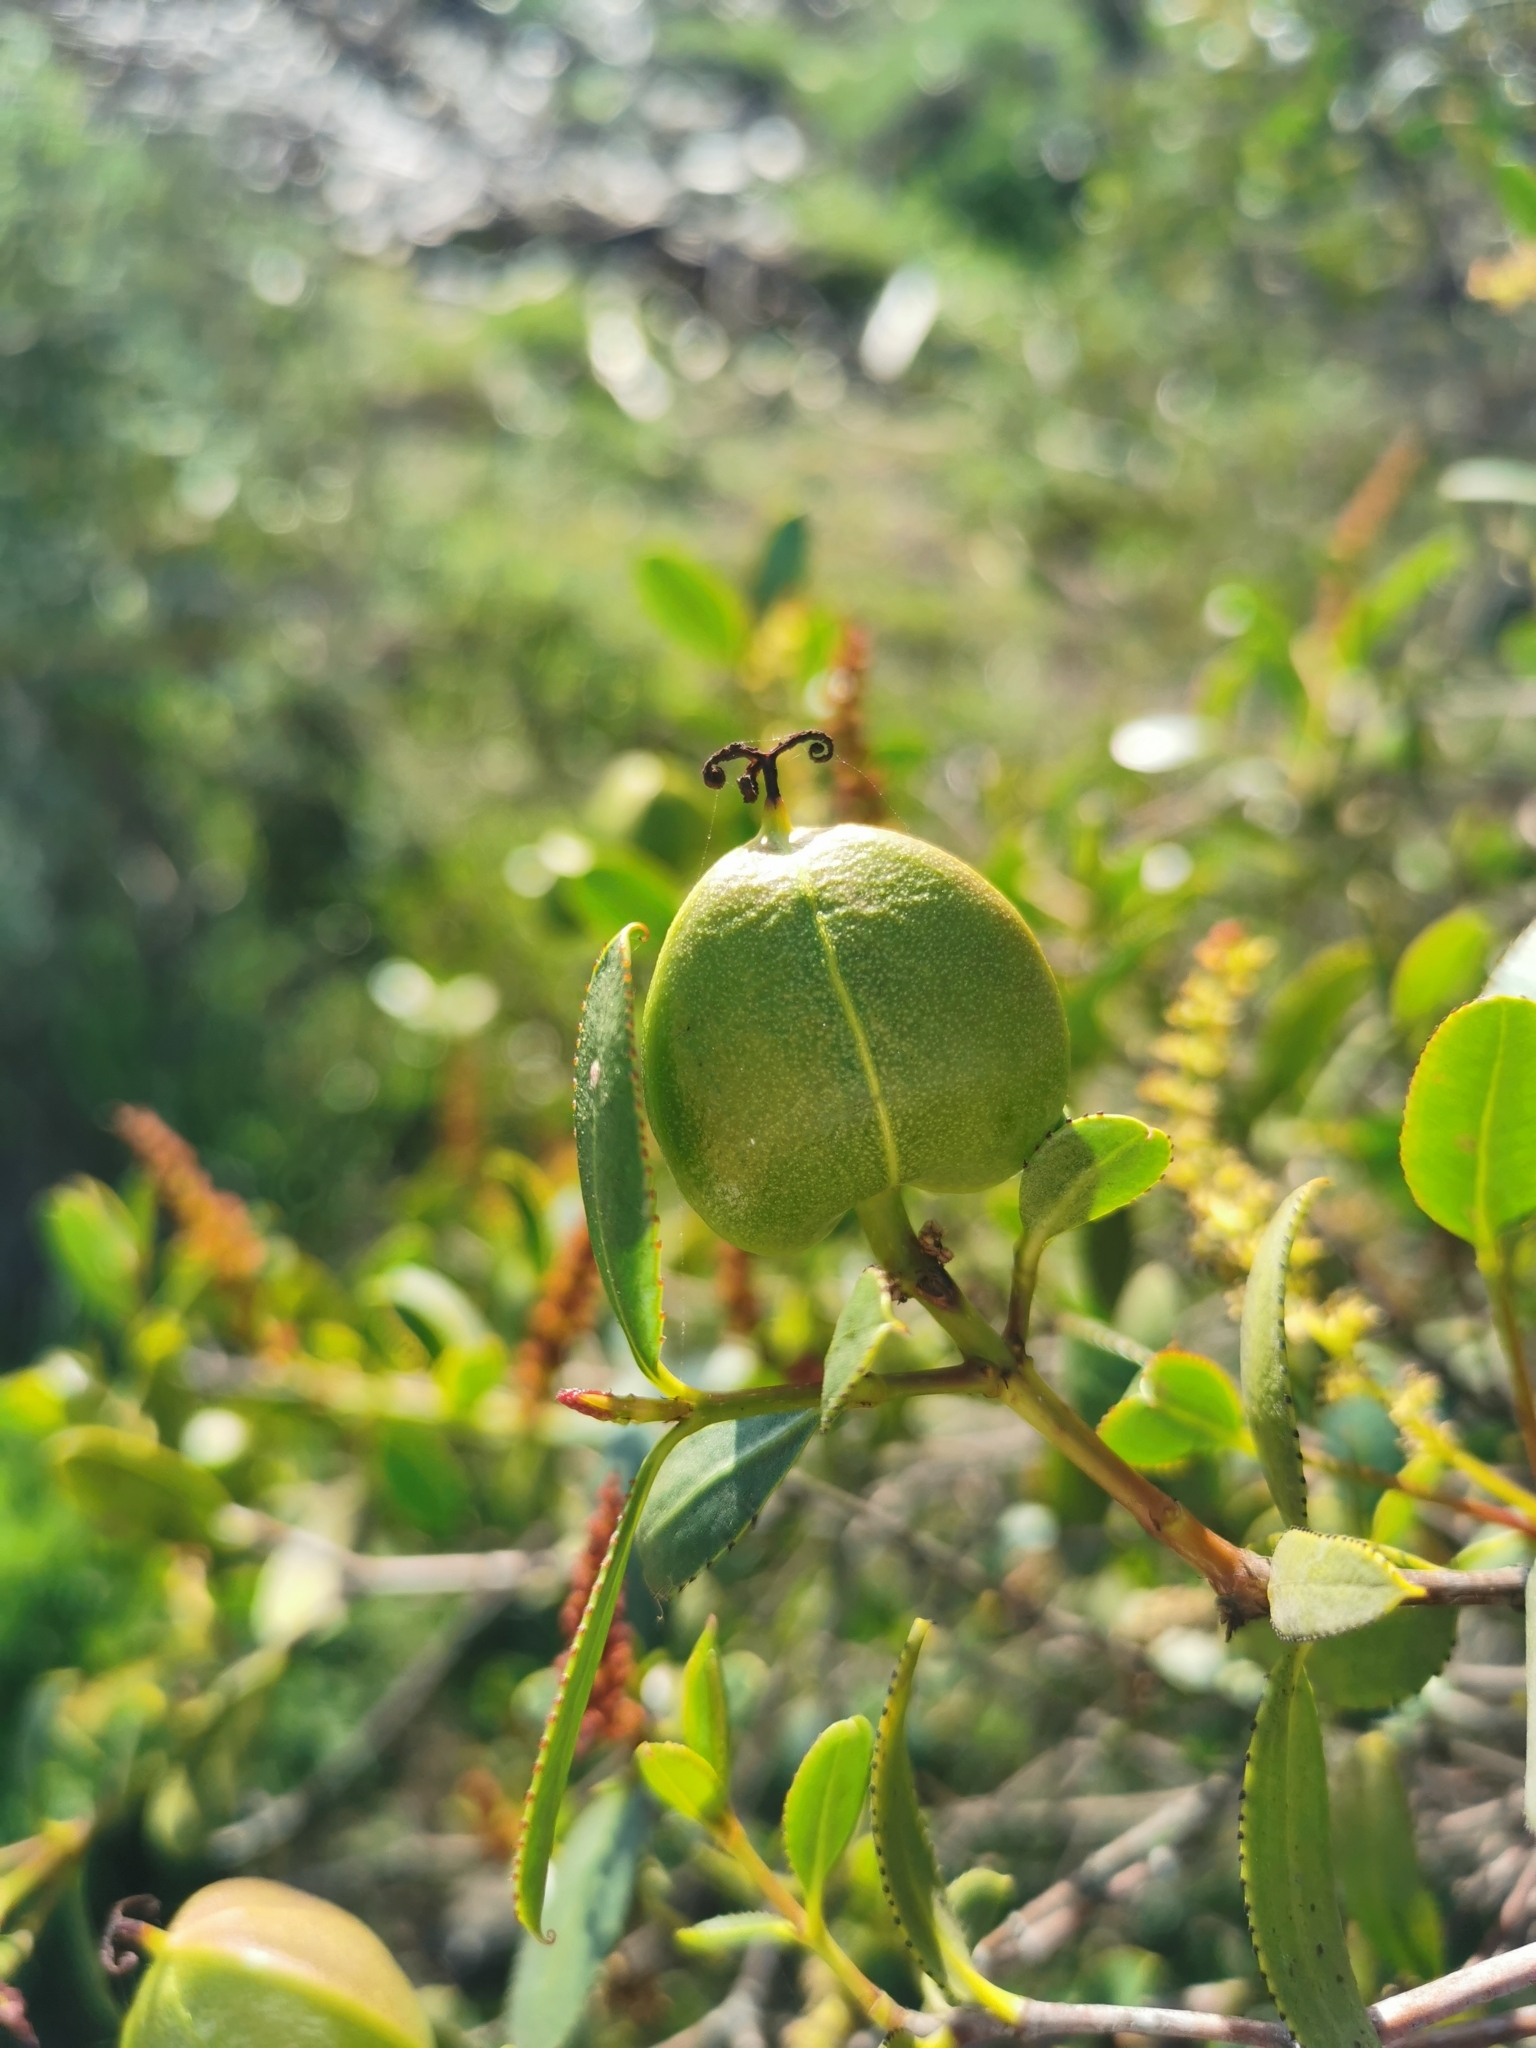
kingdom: Plantae
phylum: Tracheophyta
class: Magnoliopsida
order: Malpighiales
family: Euphorbiaceae
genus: Colliguaja
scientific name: Colliguaja odorifera
